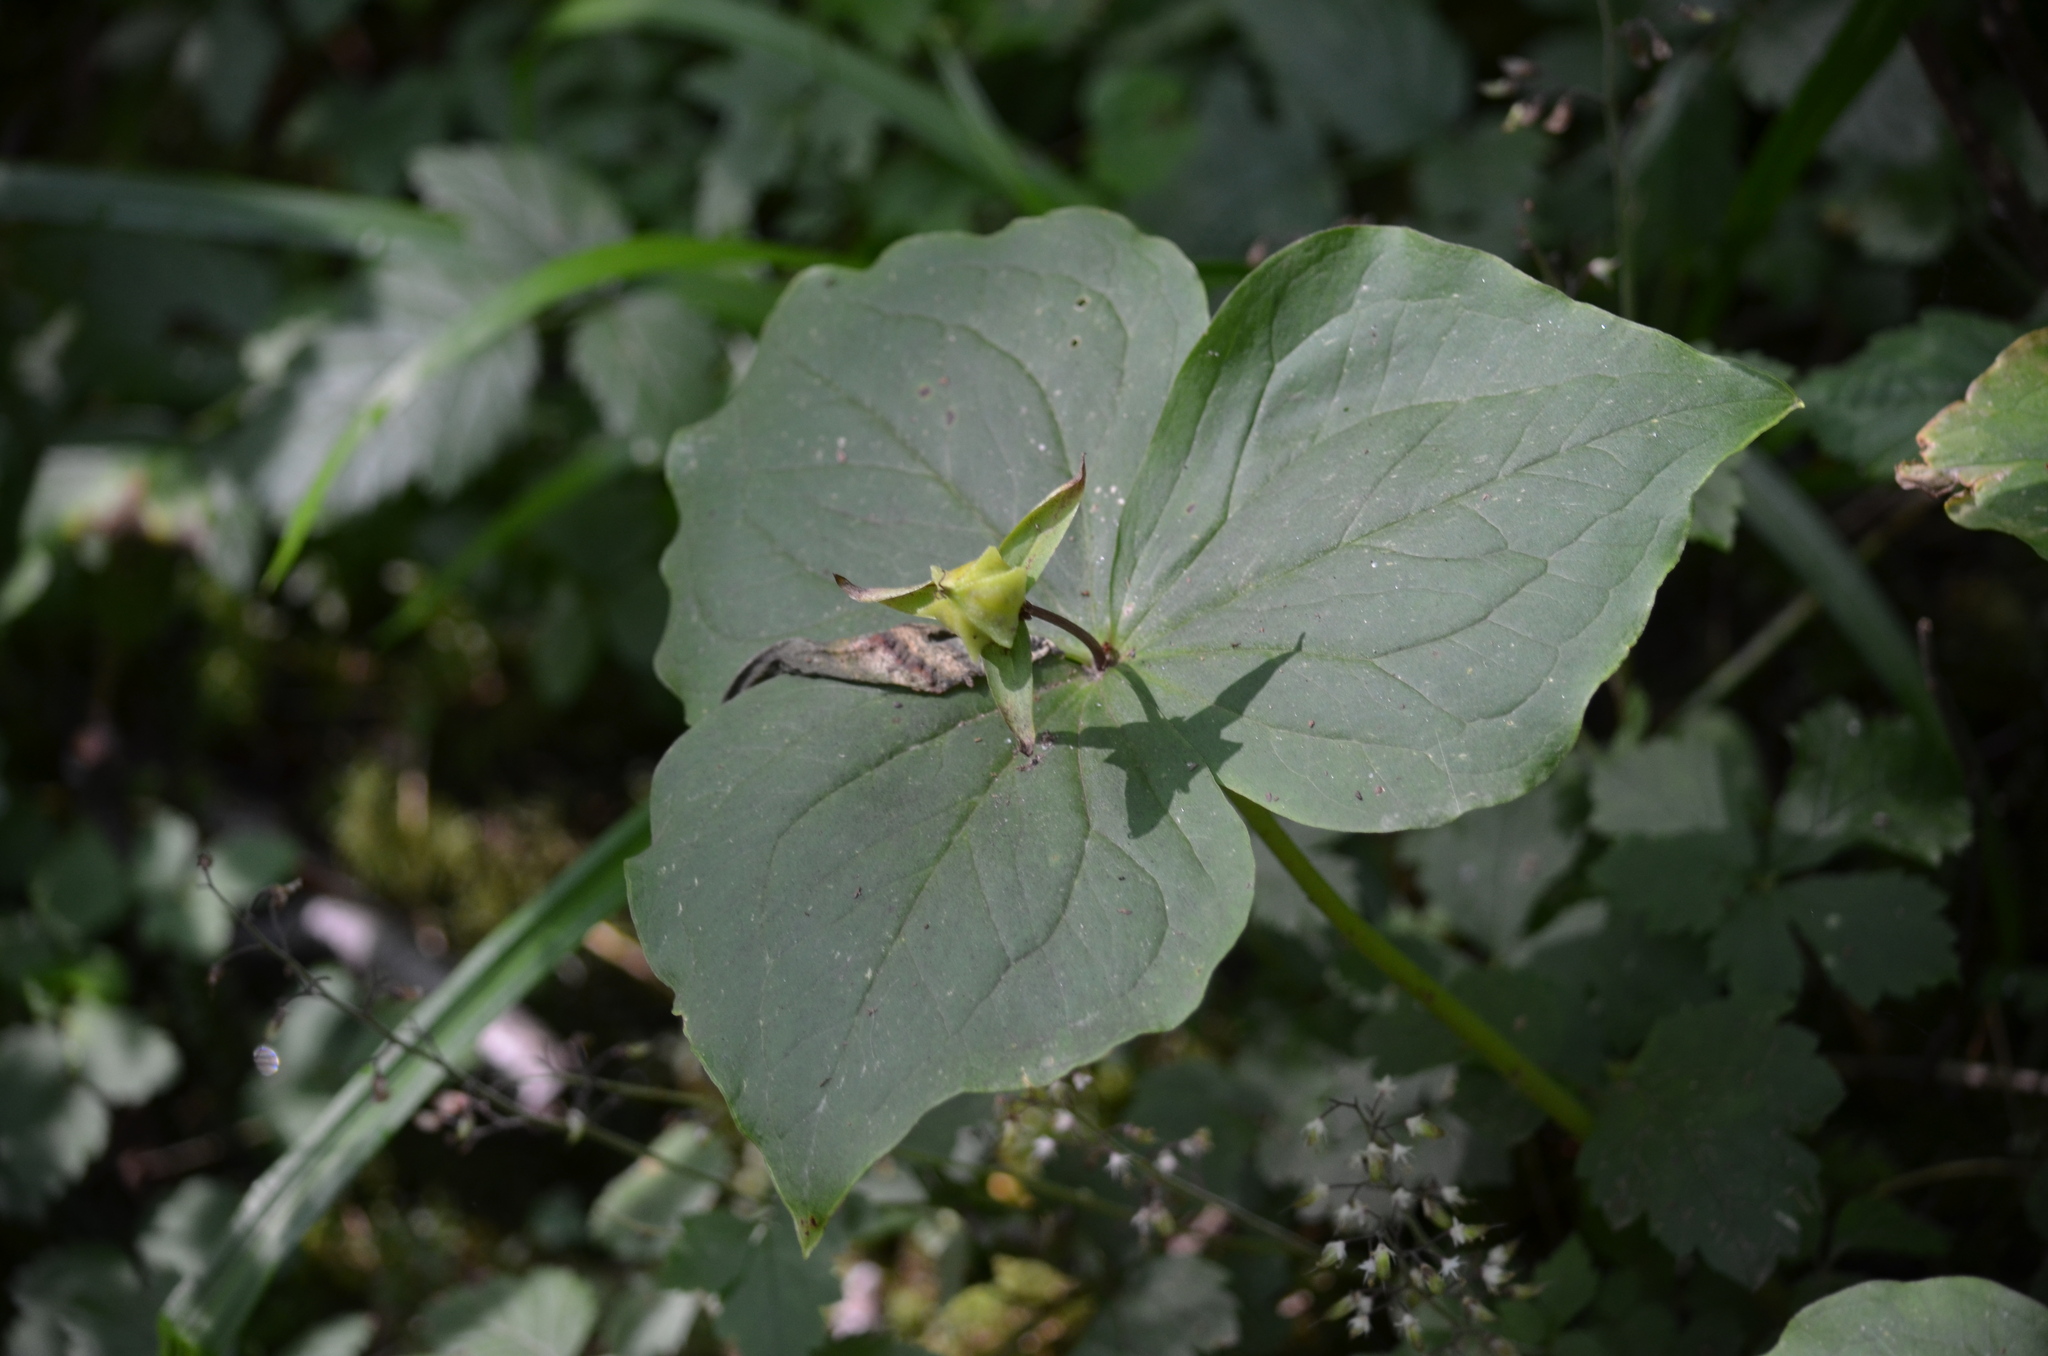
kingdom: Plantae
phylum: Tracheophyta
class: Liliopsida
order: Liliales
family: Melanthiaceae
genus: Trillium
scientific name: Trillium ovatum
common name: Pacific trillium
